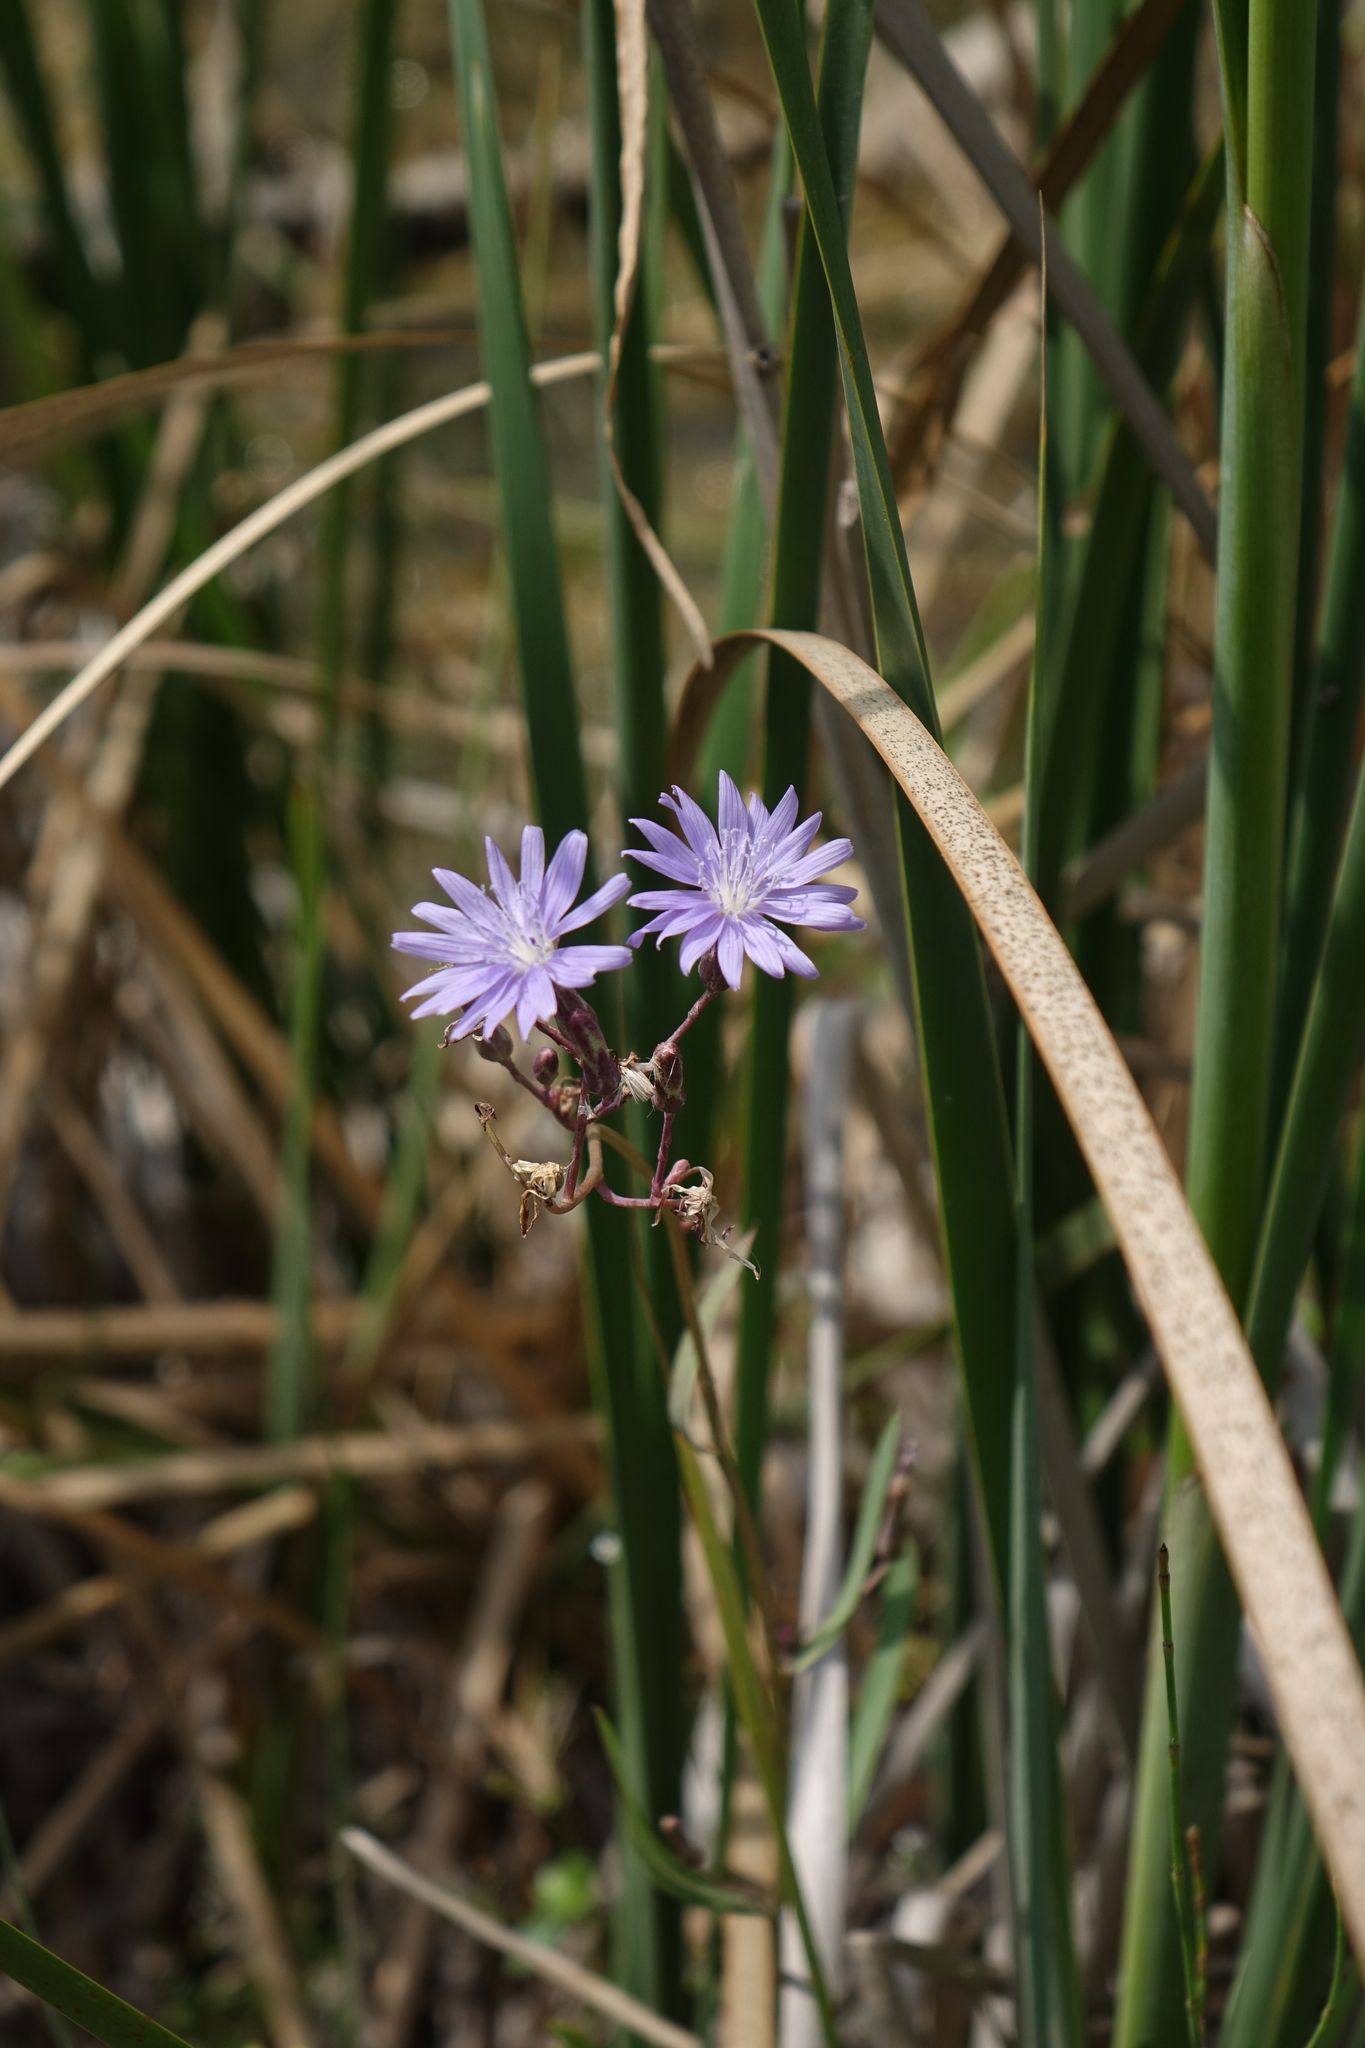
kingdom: Plantae
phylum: Tracheophyta
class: Magnoliopsida
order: Asterales
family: Asteraceae
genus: Lactuca
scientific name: Lactuca tatarica
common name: Blue lettuce
